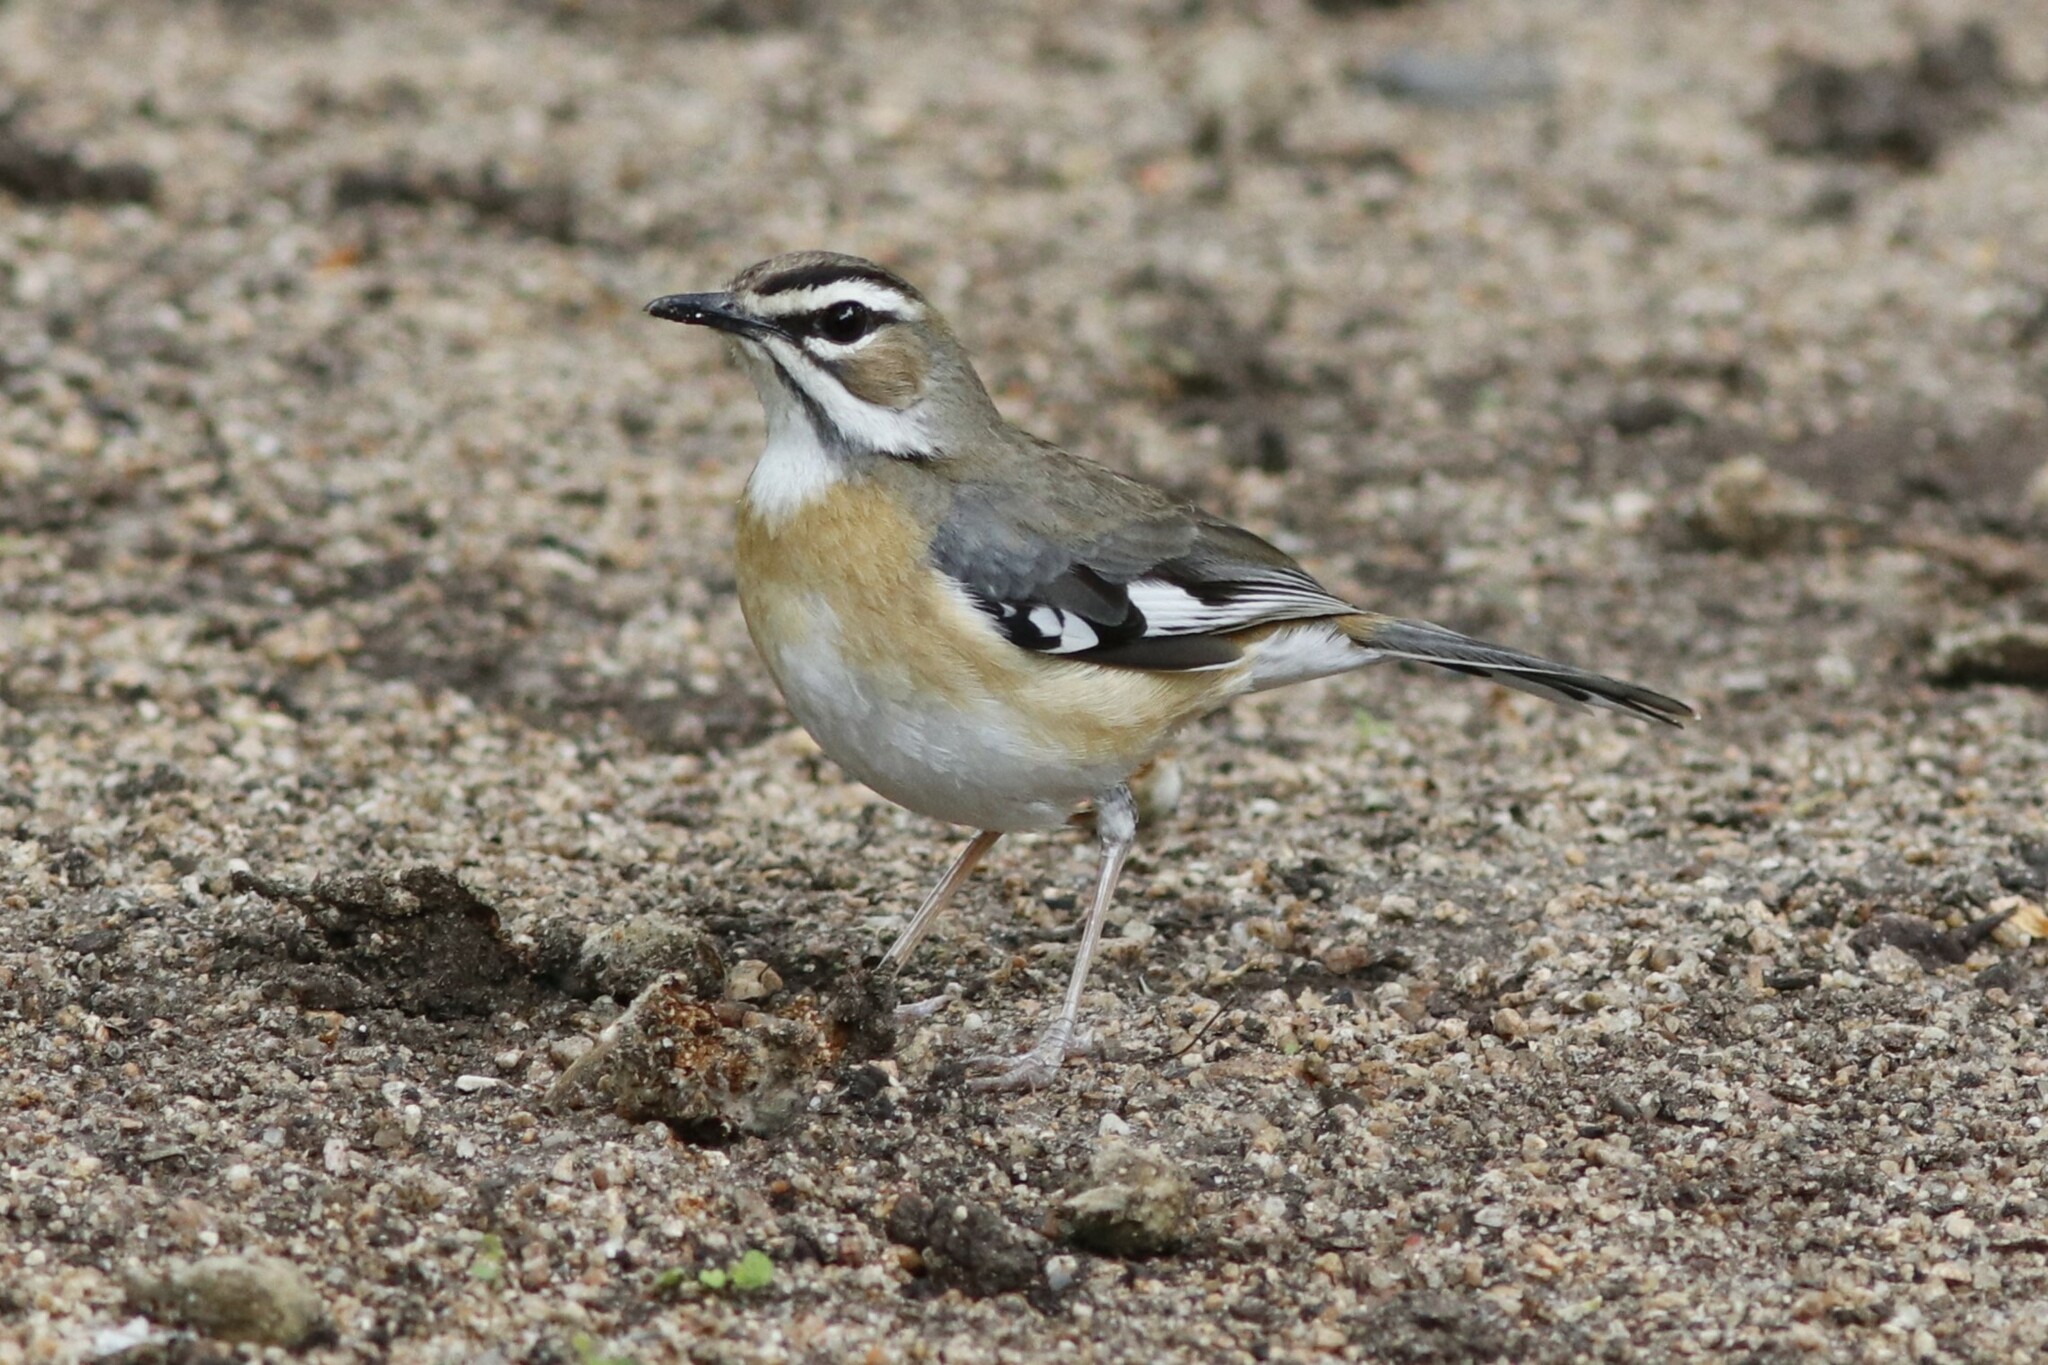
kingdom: Animalia
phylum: Chordata
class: Aves
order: Passeriformes
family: Muscicapidae
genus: Erythropygia
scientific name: Erythropygia quadrivirgata
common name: Bearded scrub robin
